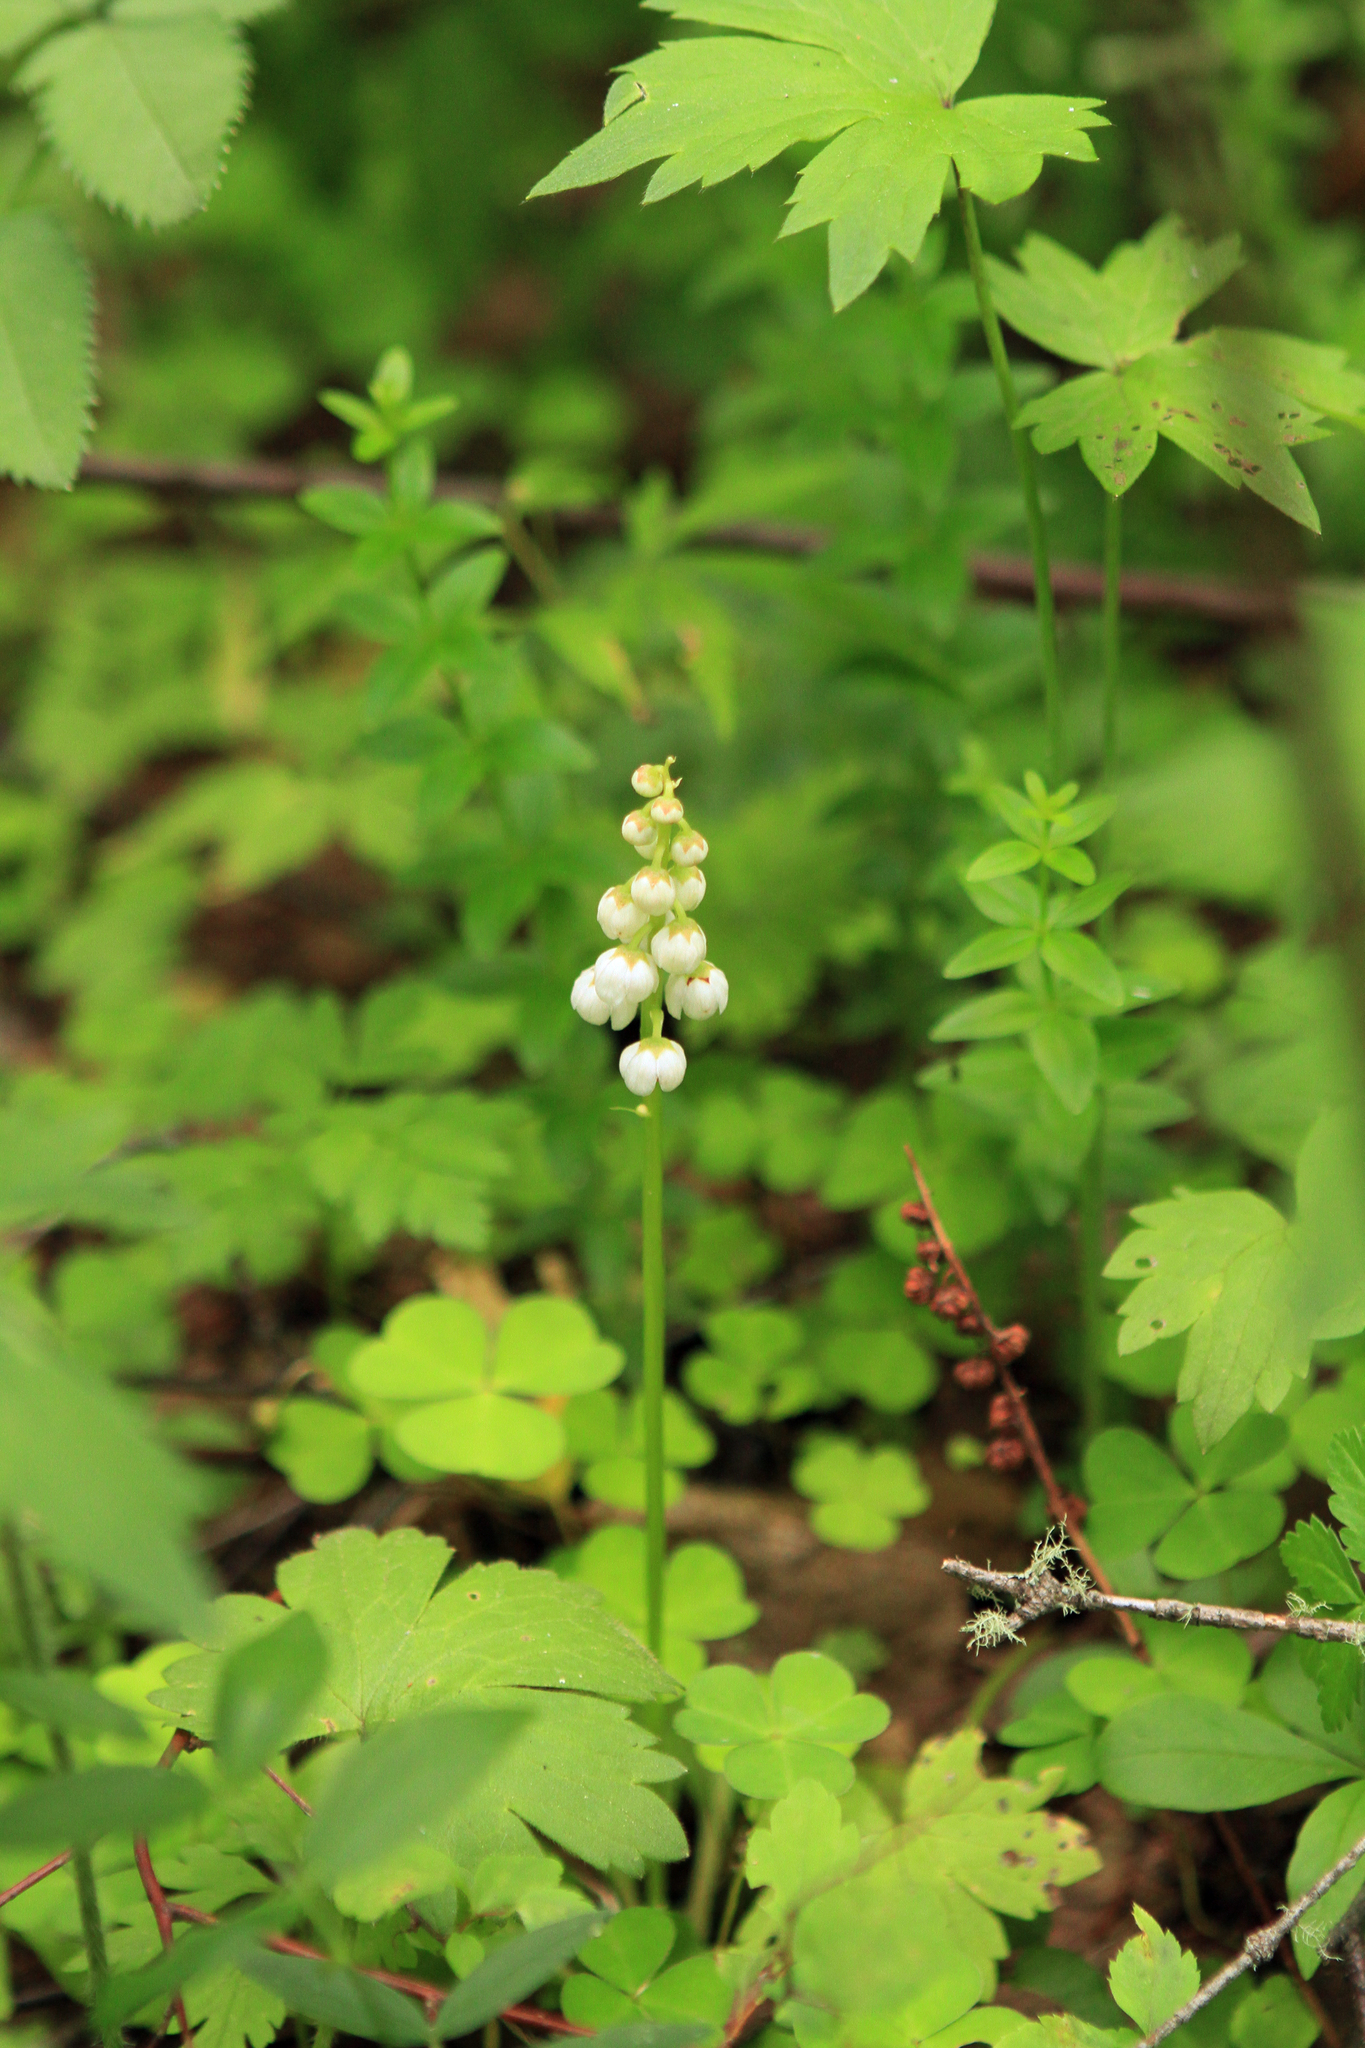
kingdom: Plantae
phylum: Tracheophyta
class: Magnoliopsida
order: Ericales
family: Ericaceae
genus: Pyrola
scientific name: Pyrola minor
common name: Common wintergreen
